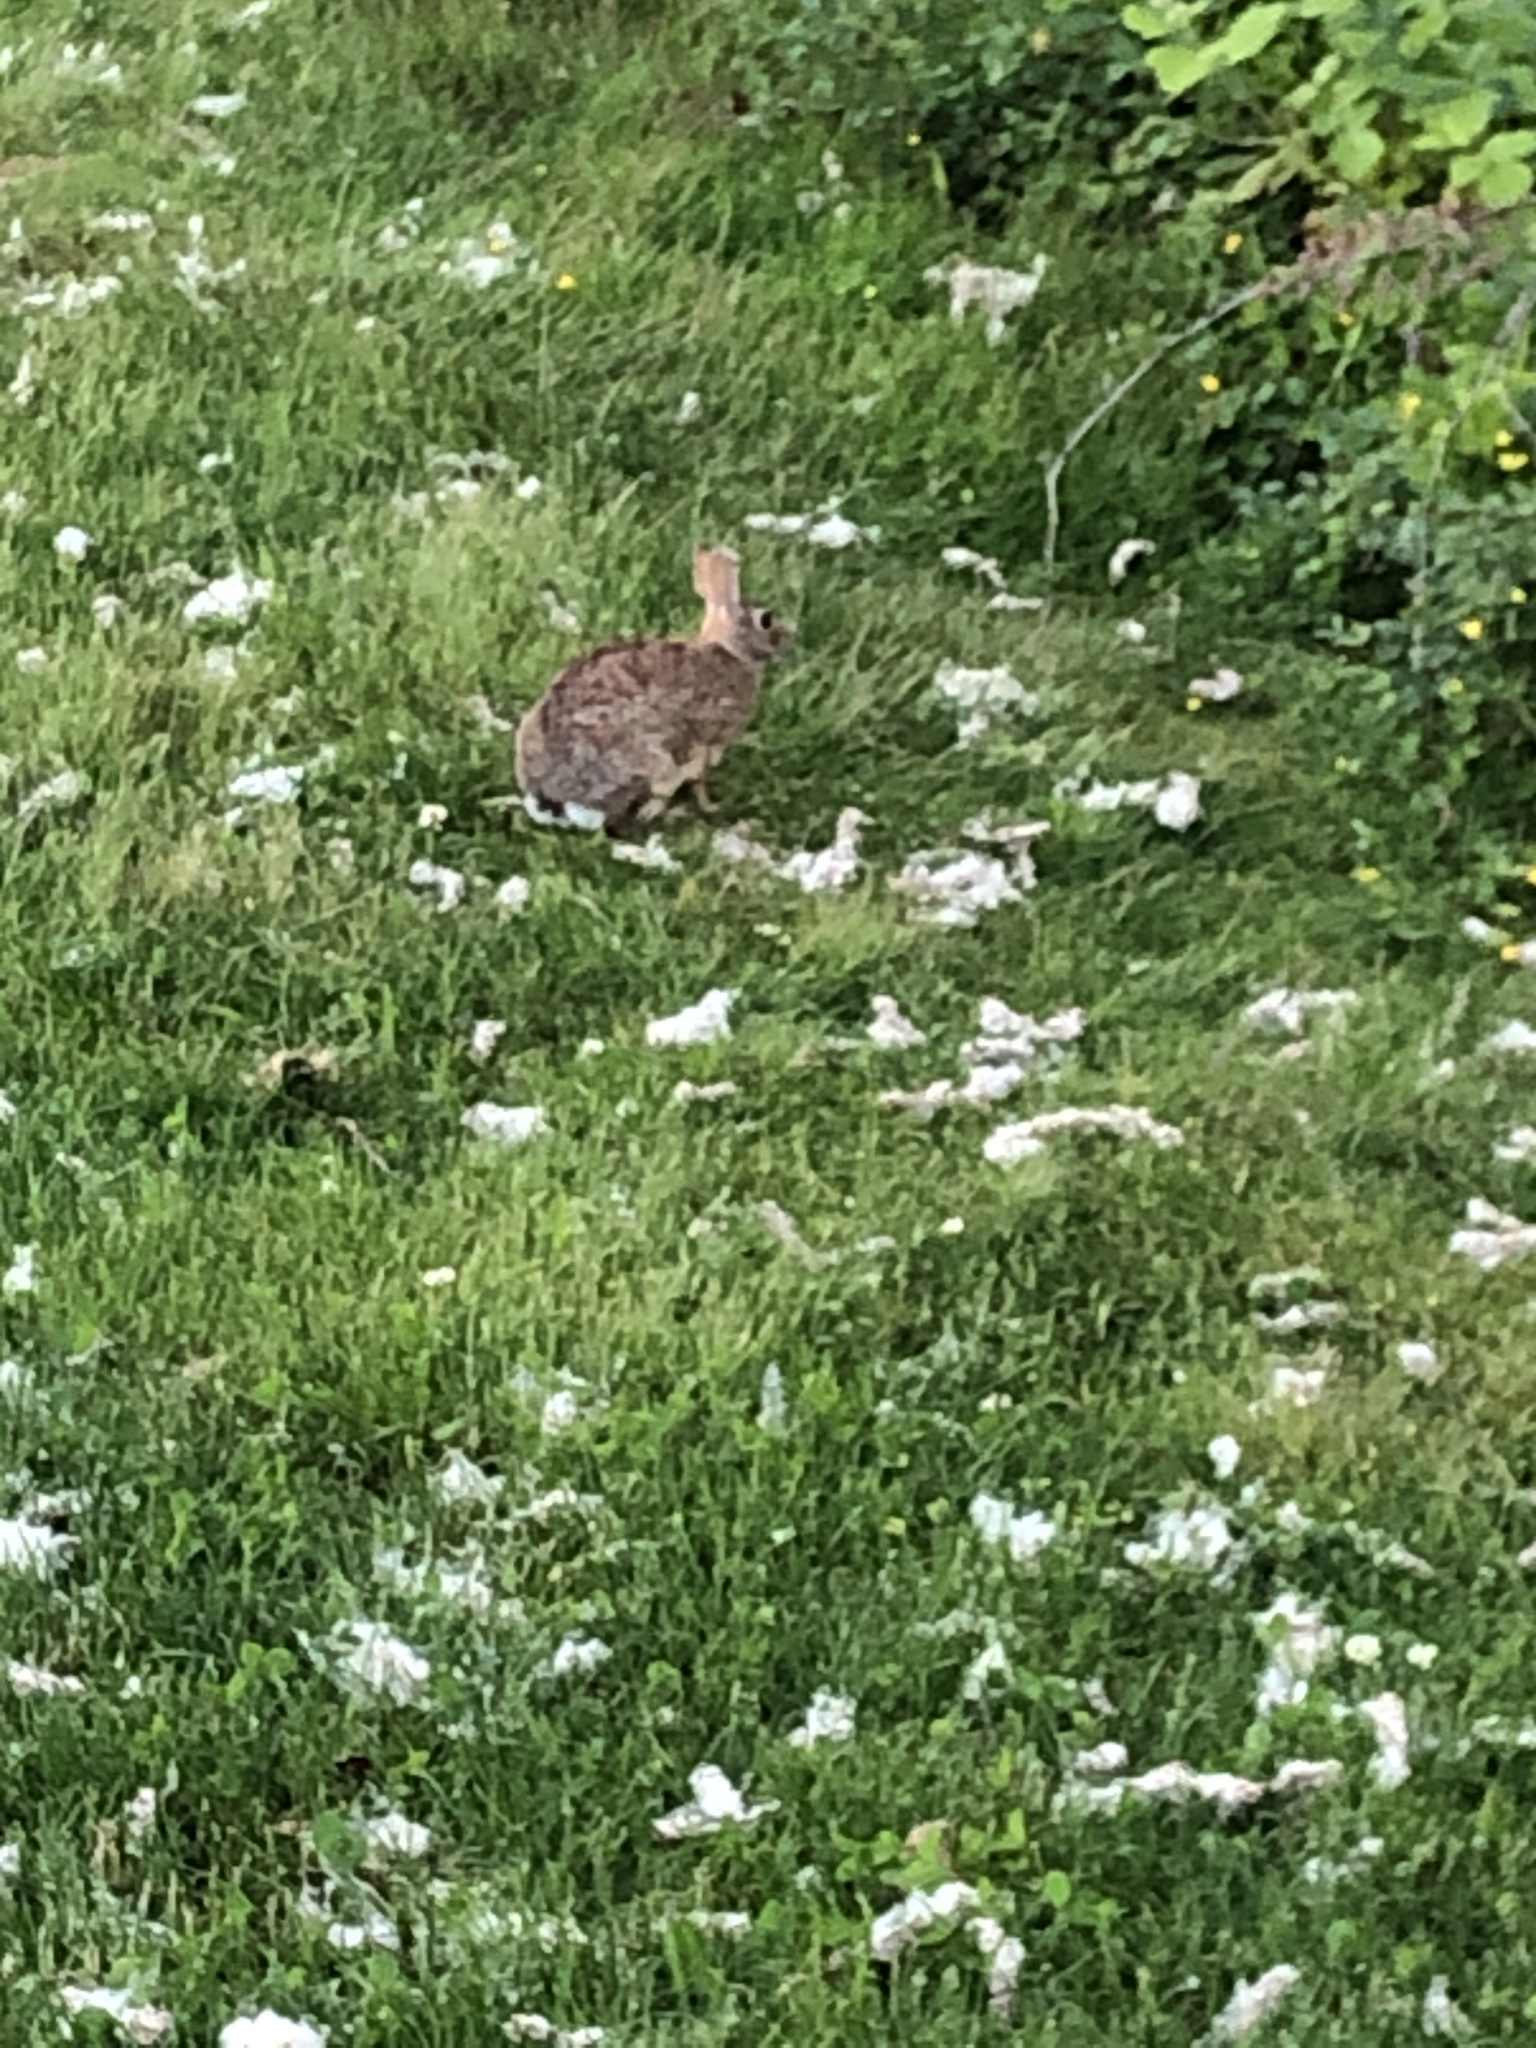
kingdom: Animalia
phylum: Chordata
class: Mammalia
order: Lagomorpha
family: Leporidae
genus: Sylvilagus
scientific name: Sylvilagus floridanus
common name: Eastern cottontail
